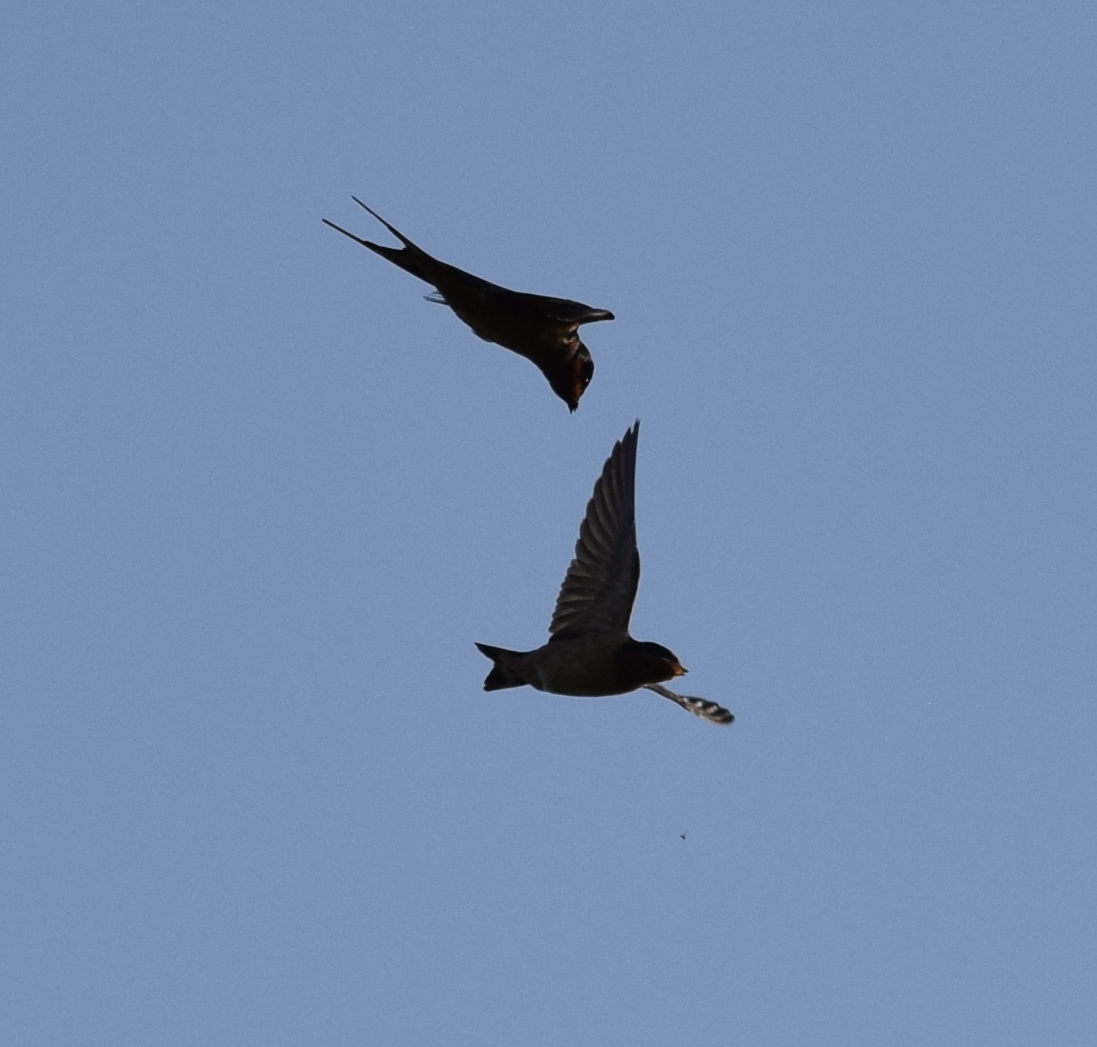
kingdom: Animalia
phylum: Chordata
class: Aves
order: Passeriformes
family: Hirundinidae
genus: Hirundo
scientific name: Hirundo rustica
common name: Barn swallow
